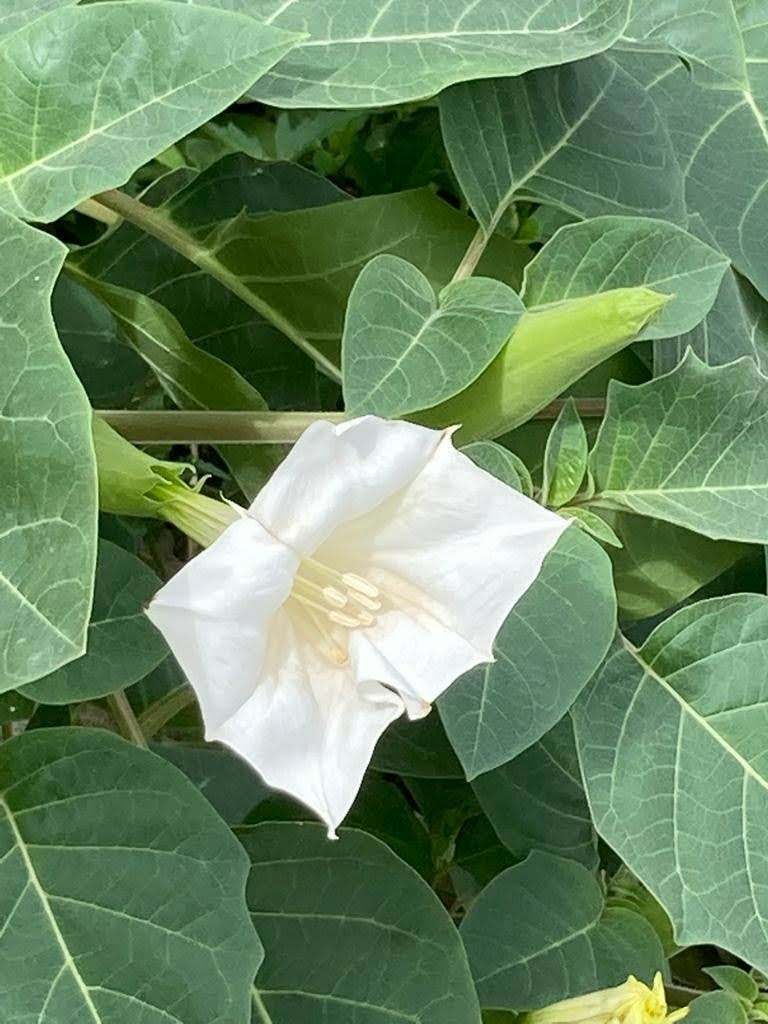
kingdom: Plantae
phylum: Tracheophyta
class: Magnoliopsida
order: Solanales
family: Solanaceae
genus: Datura
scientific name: Datura innoxia
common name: Downy thorn-apple
